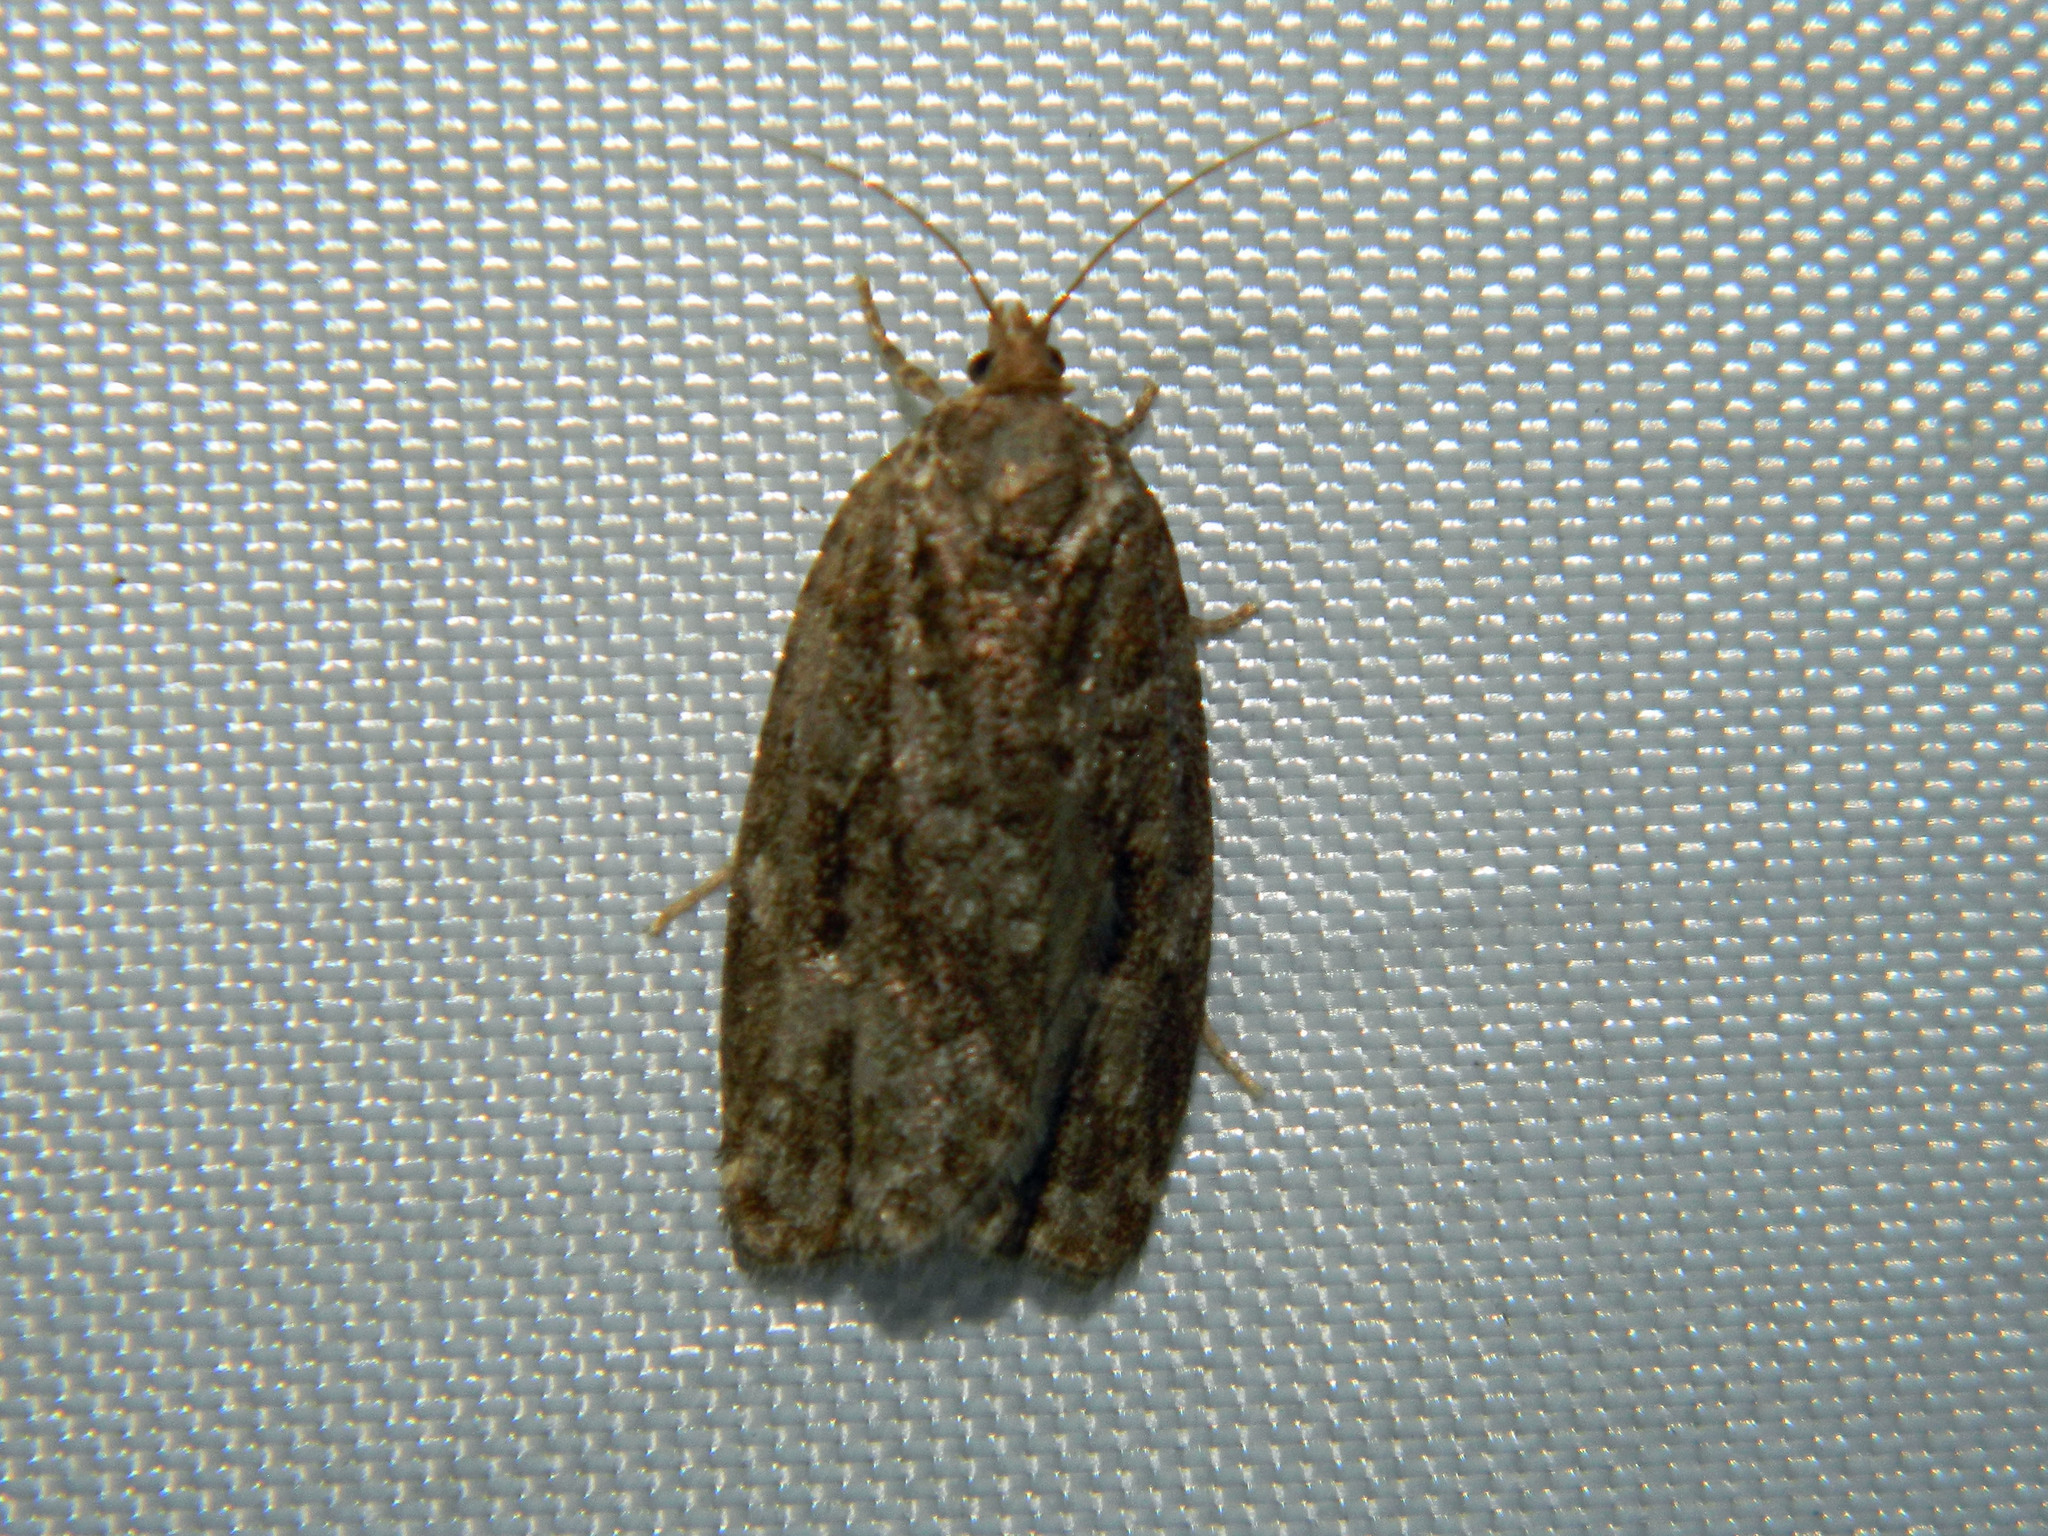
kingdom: Animalia
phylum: Arthropoda
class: Insecta
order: Lepidoptera
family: Tortricidae
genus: Choristoneura
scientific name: Choristoneura fumiferana
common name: Spruce budworm
